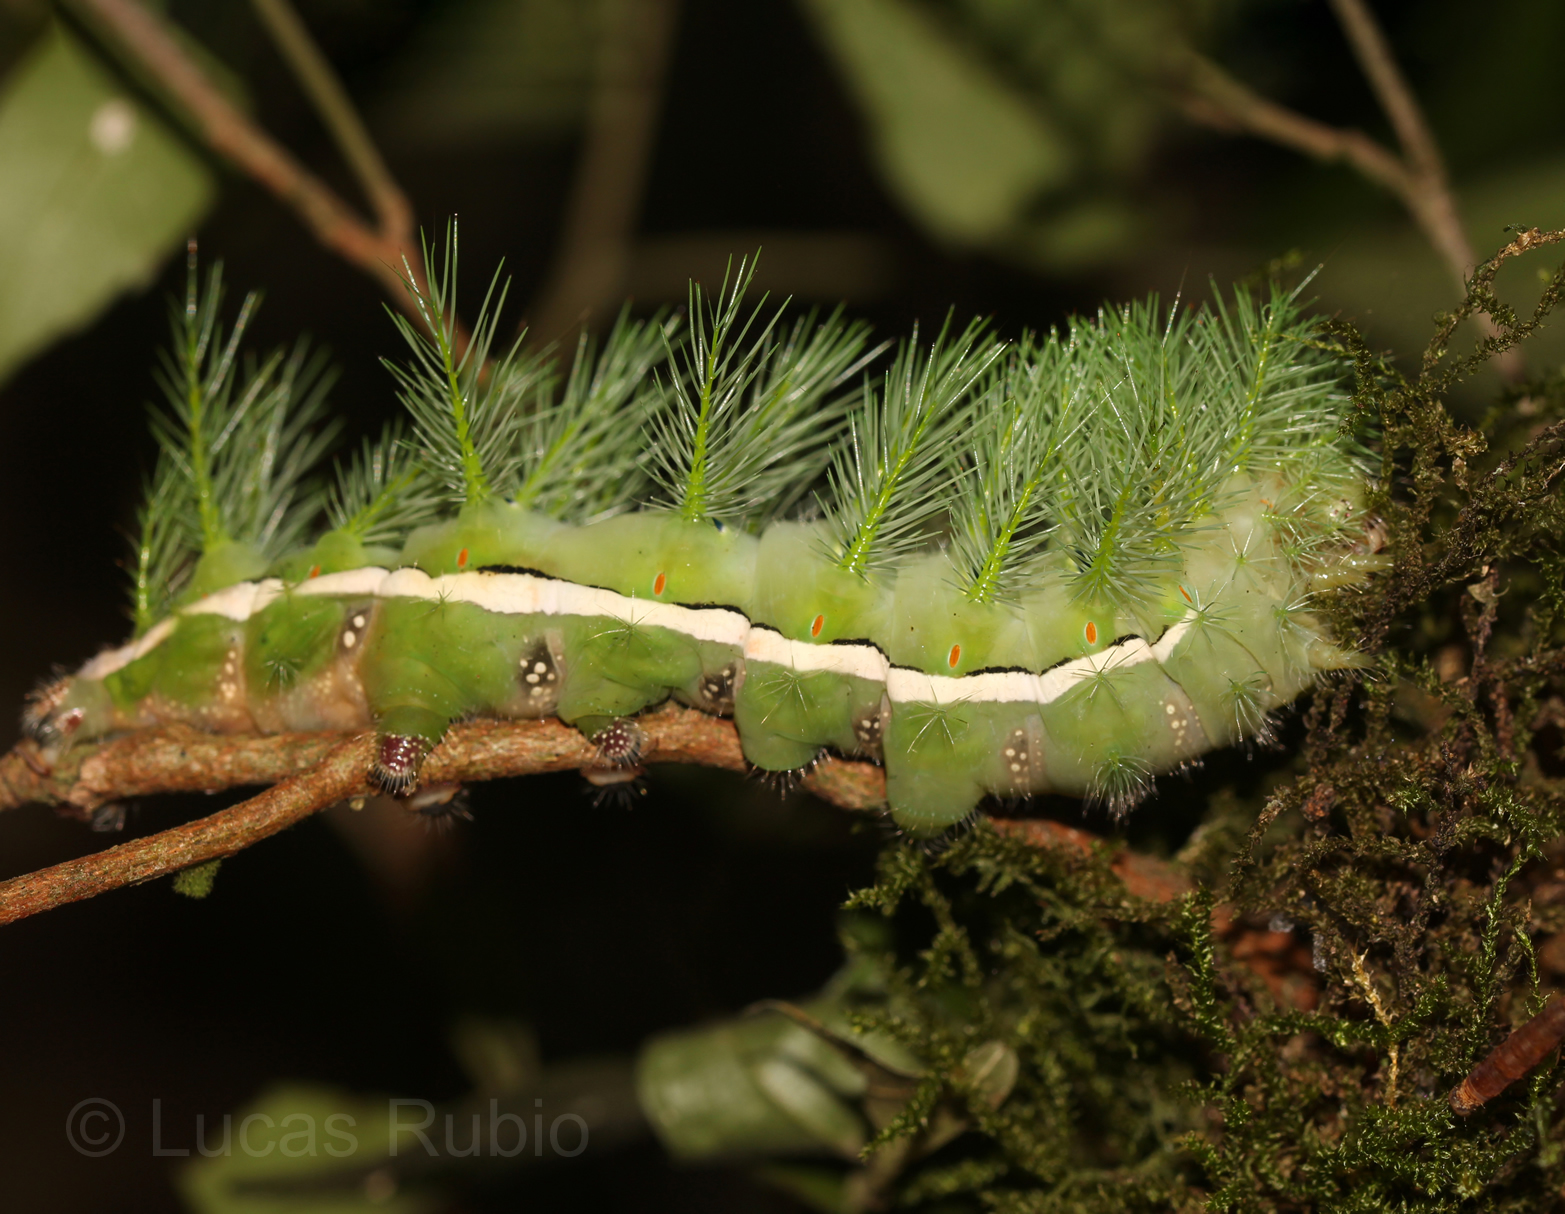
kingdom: Animalia
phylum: Arthropoda
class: Insecta
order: Lepidoptera
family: Saturniidae
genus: Automeris
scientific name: Automeris illustris
